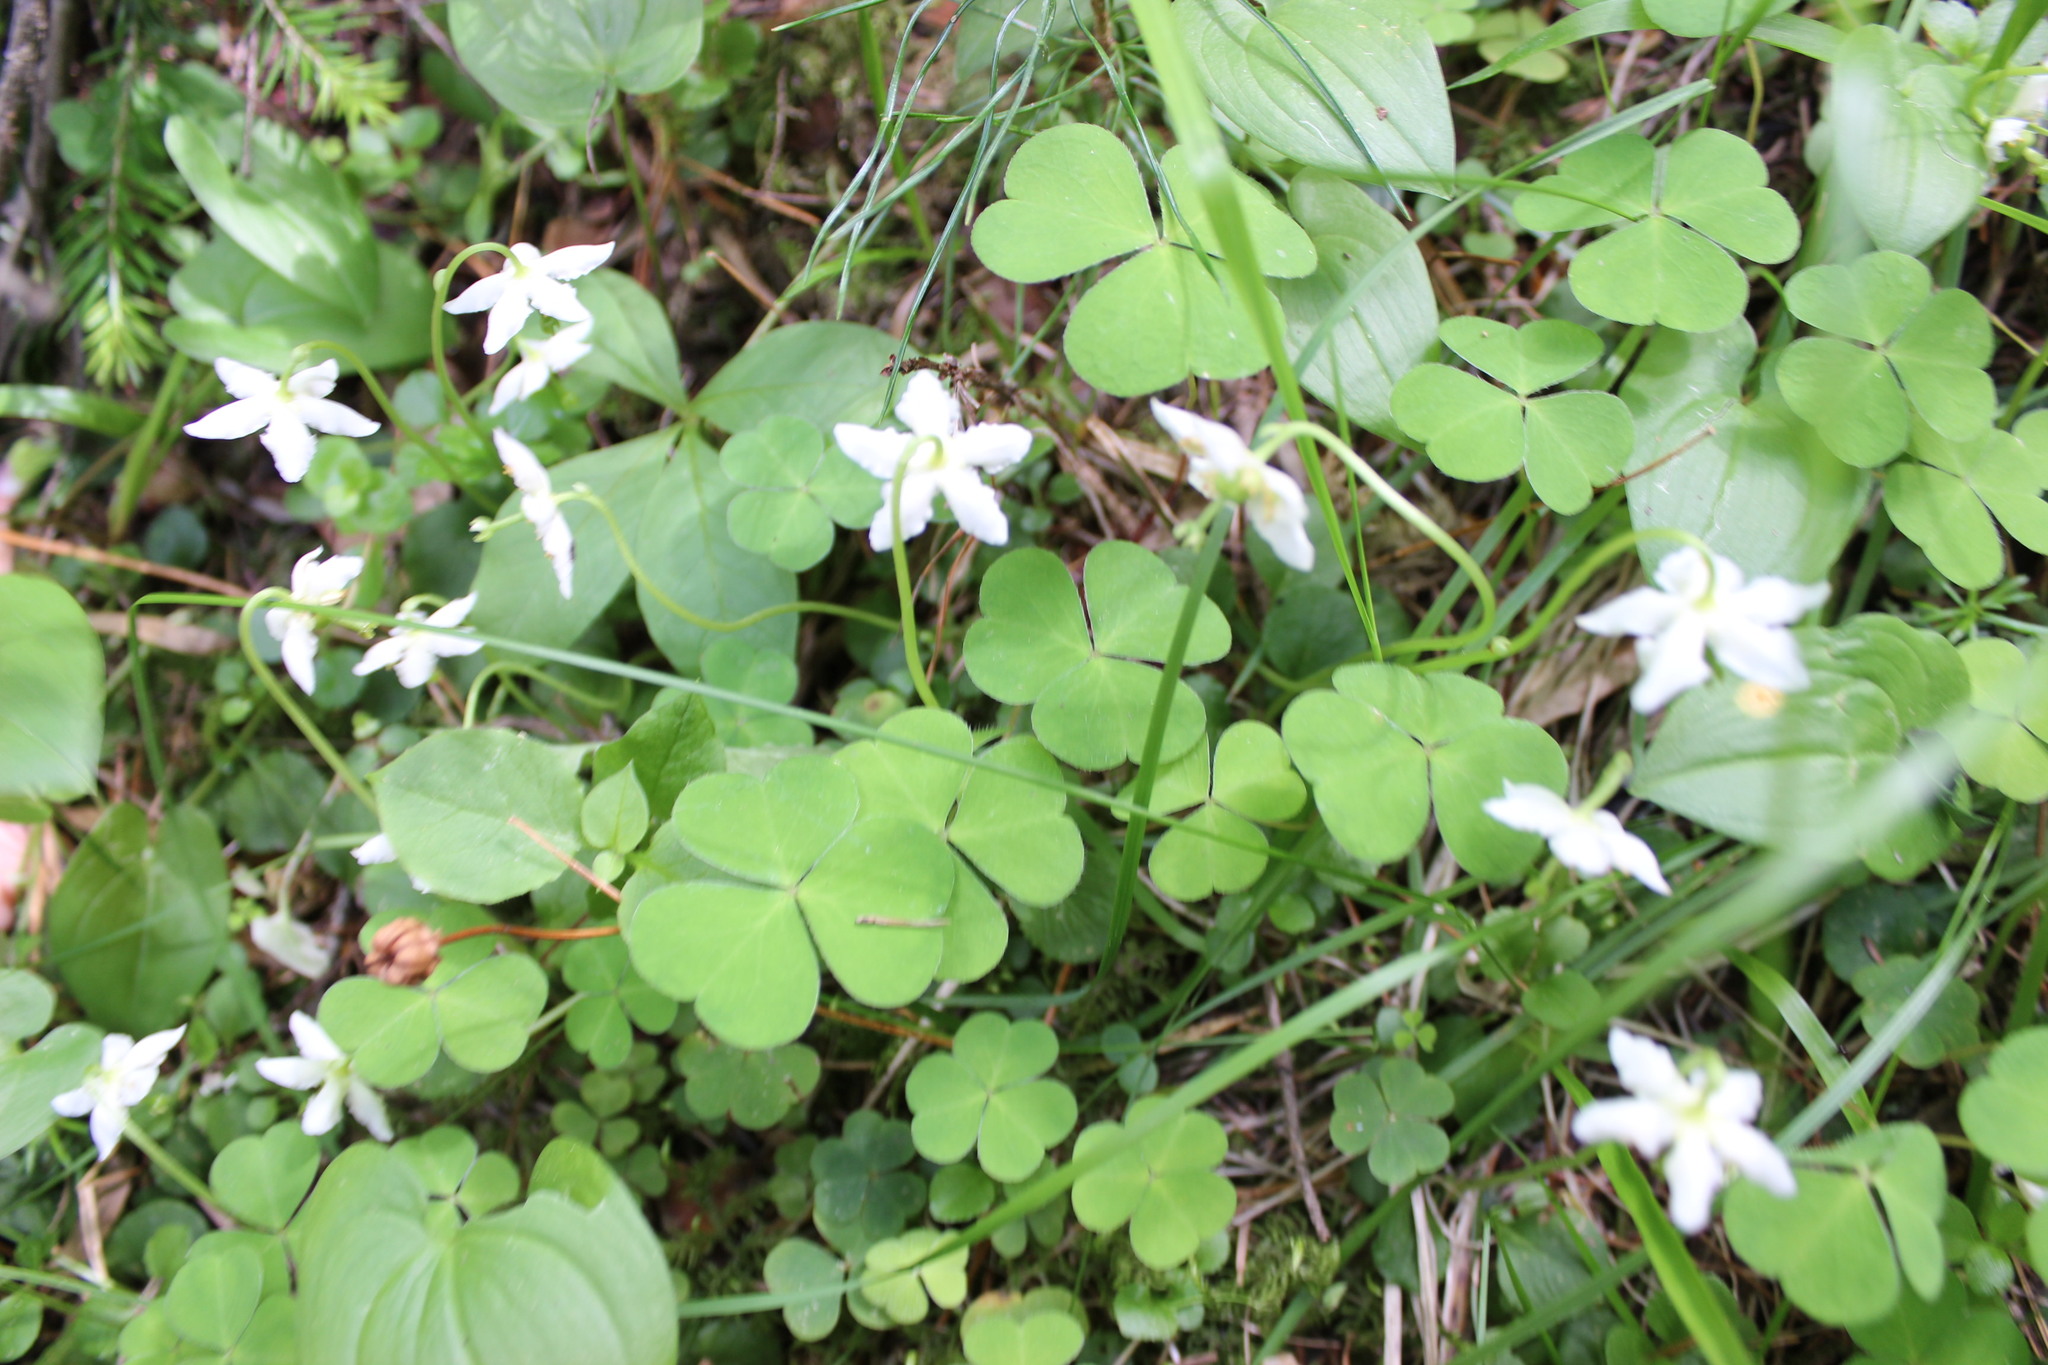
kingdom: Plantae
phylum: Tracheophyta
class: Magnoliopsida
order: Ericales
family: Ericaceae
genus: Moneses
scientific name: Moneses uniflora
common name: One-flowered wintergreen
